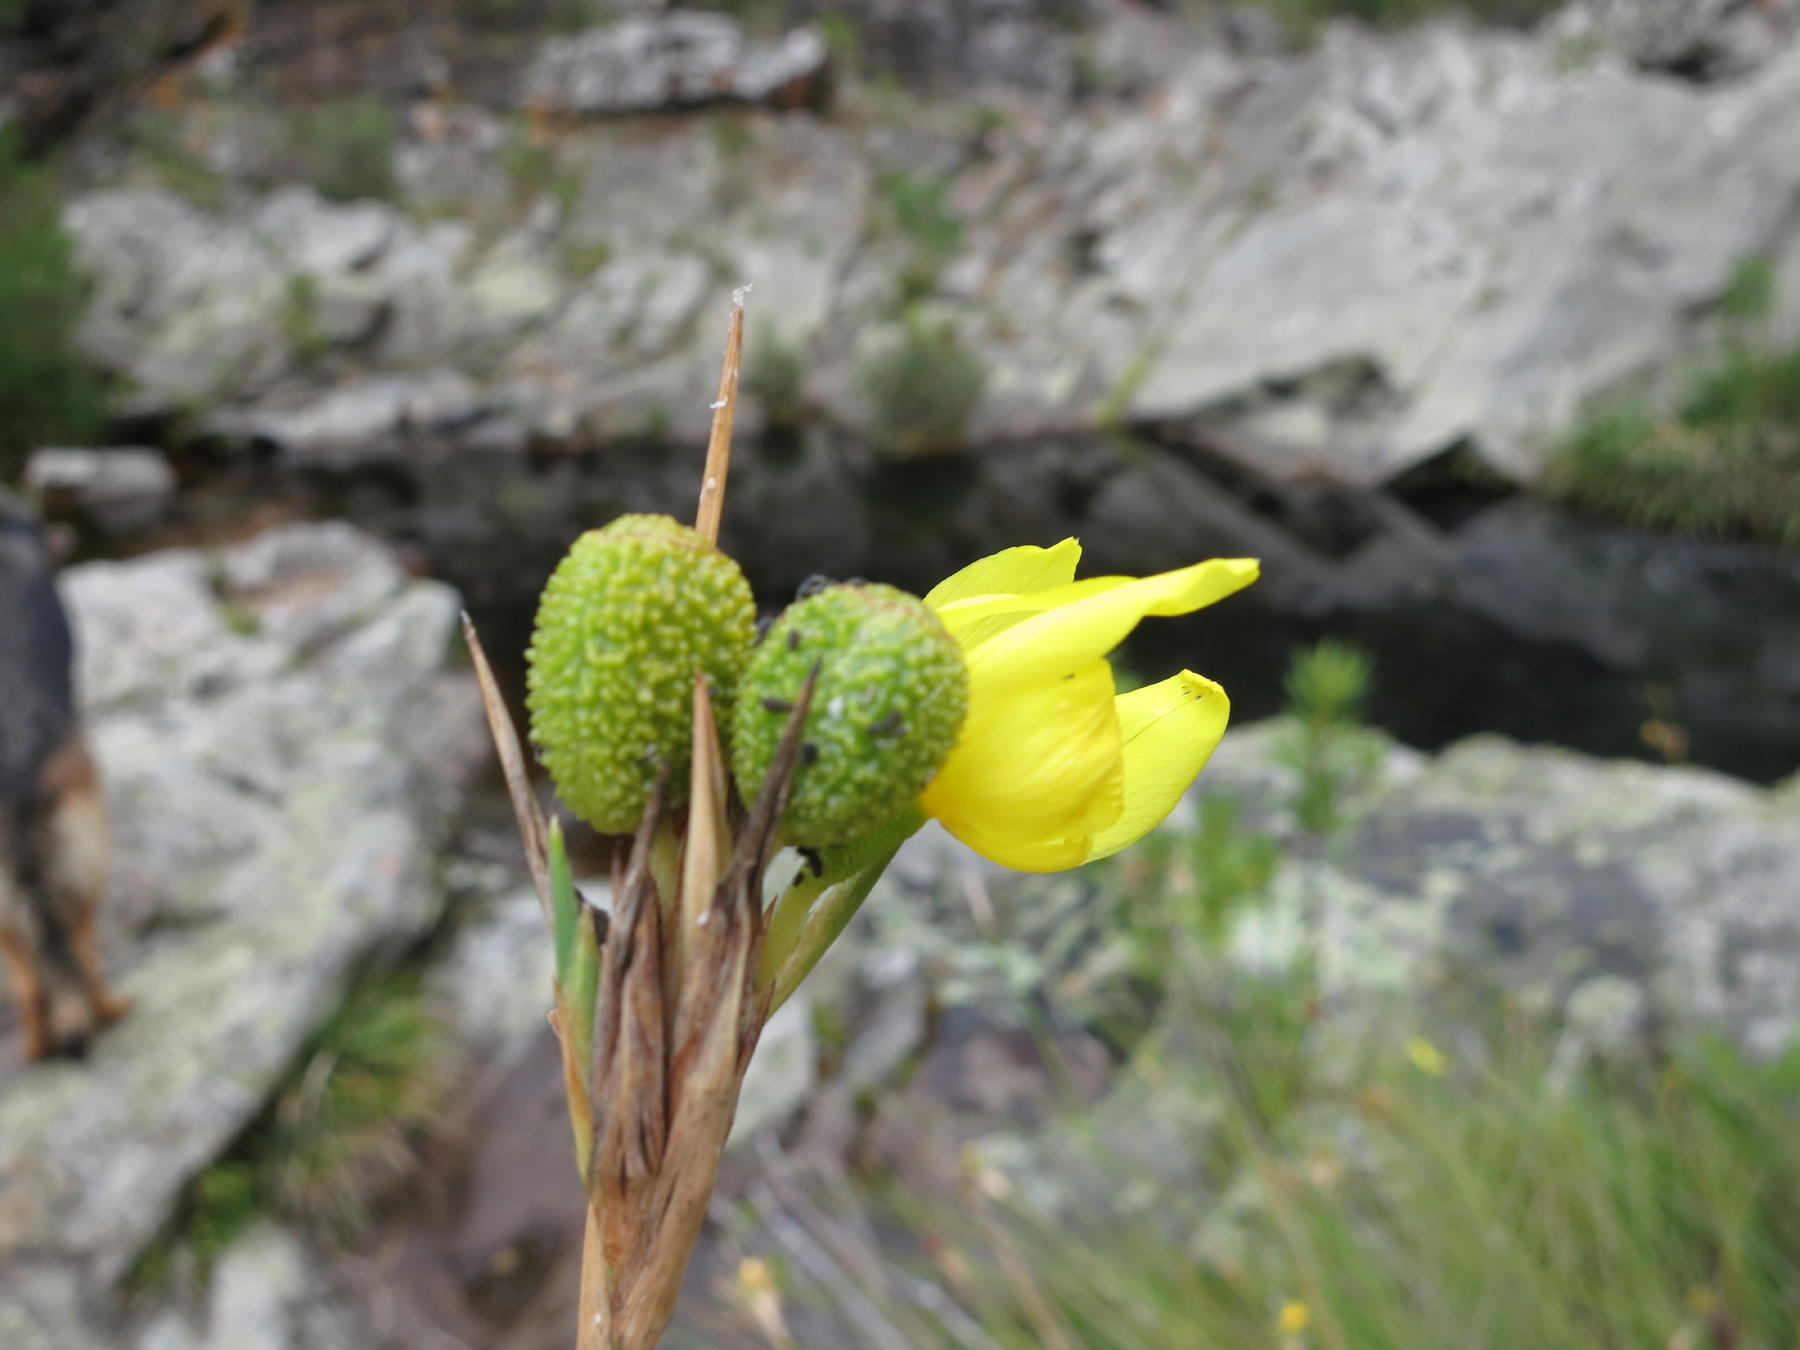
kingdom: Plantae
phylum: Tracheophyta
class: Liliopsida
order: Asparagales
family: Iridaceae
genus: Bobartia
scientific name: Bobartia aphylla
